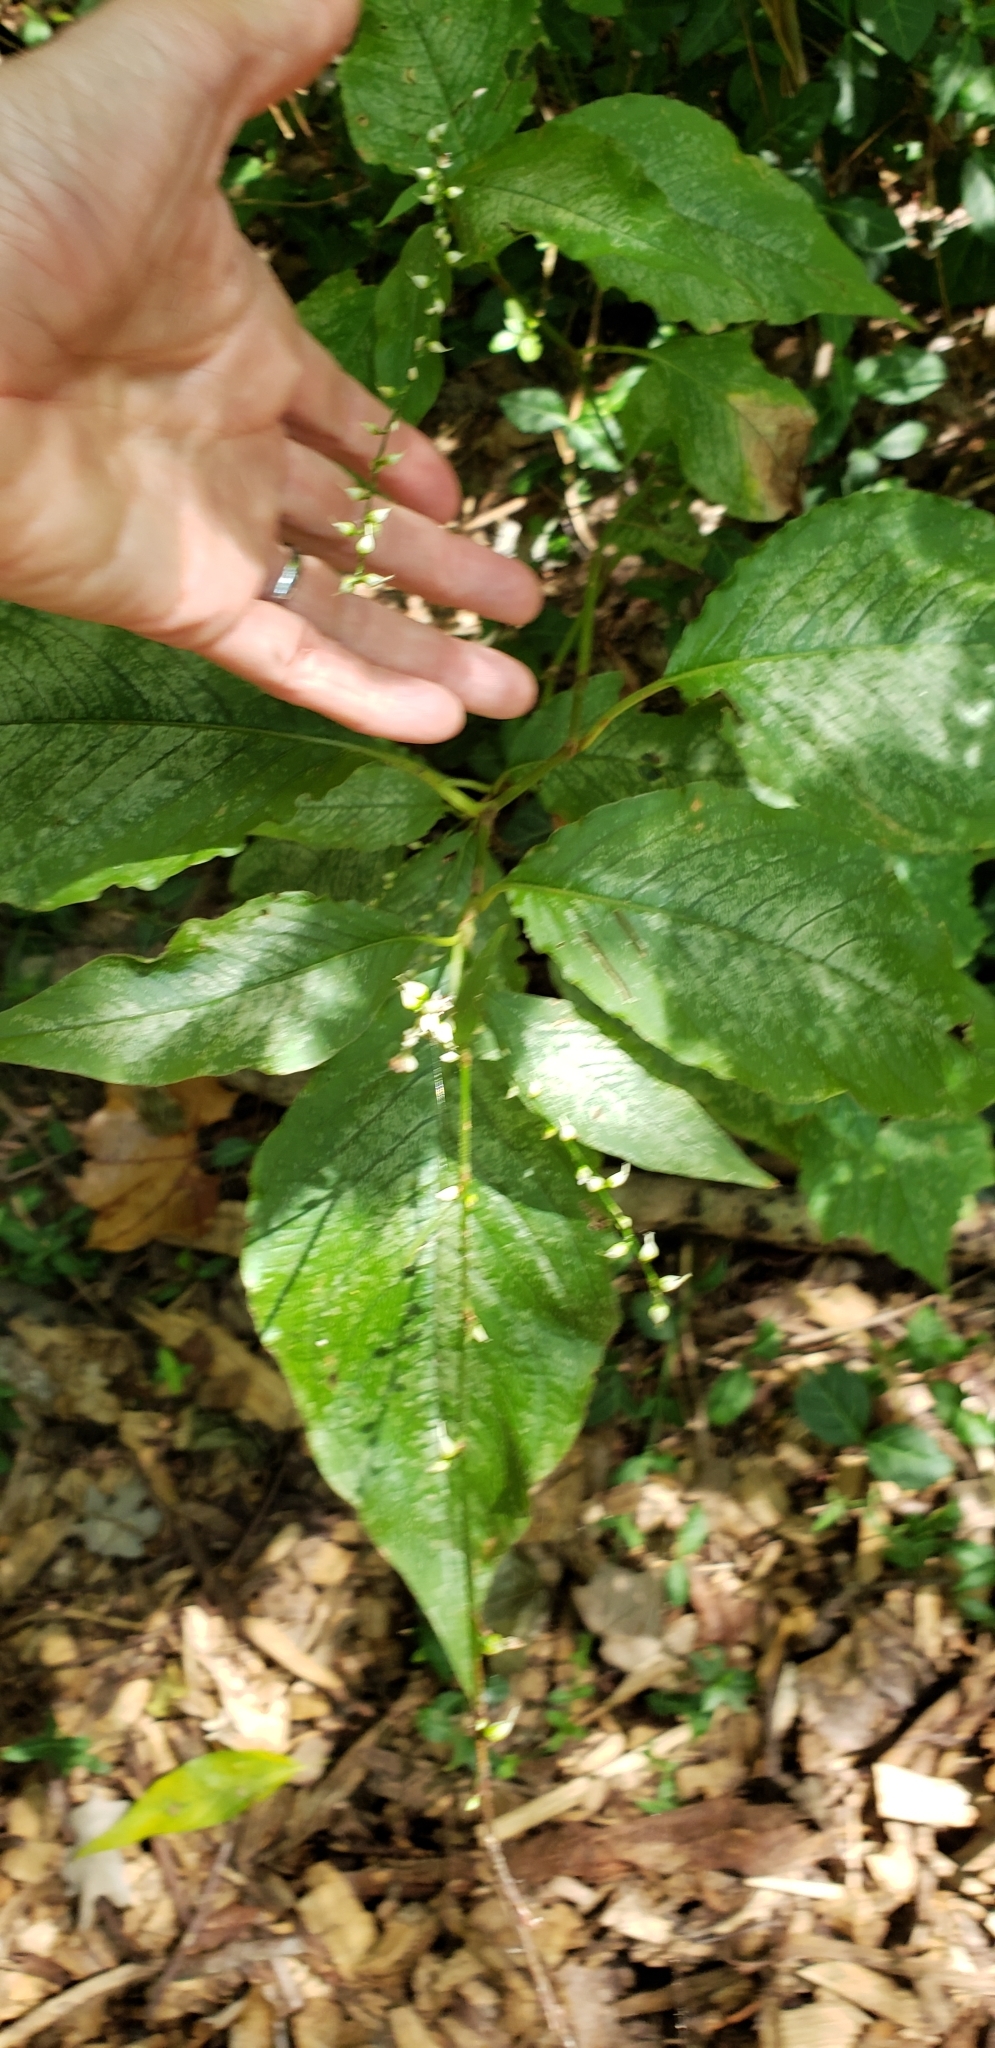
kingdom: Plantae
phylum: Tracheophyta
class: Magnoliopsida
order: Caryophyllales
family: Polygonaceae
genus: Persicaria
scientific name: Persicaria virginiana
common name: Jumpseed
